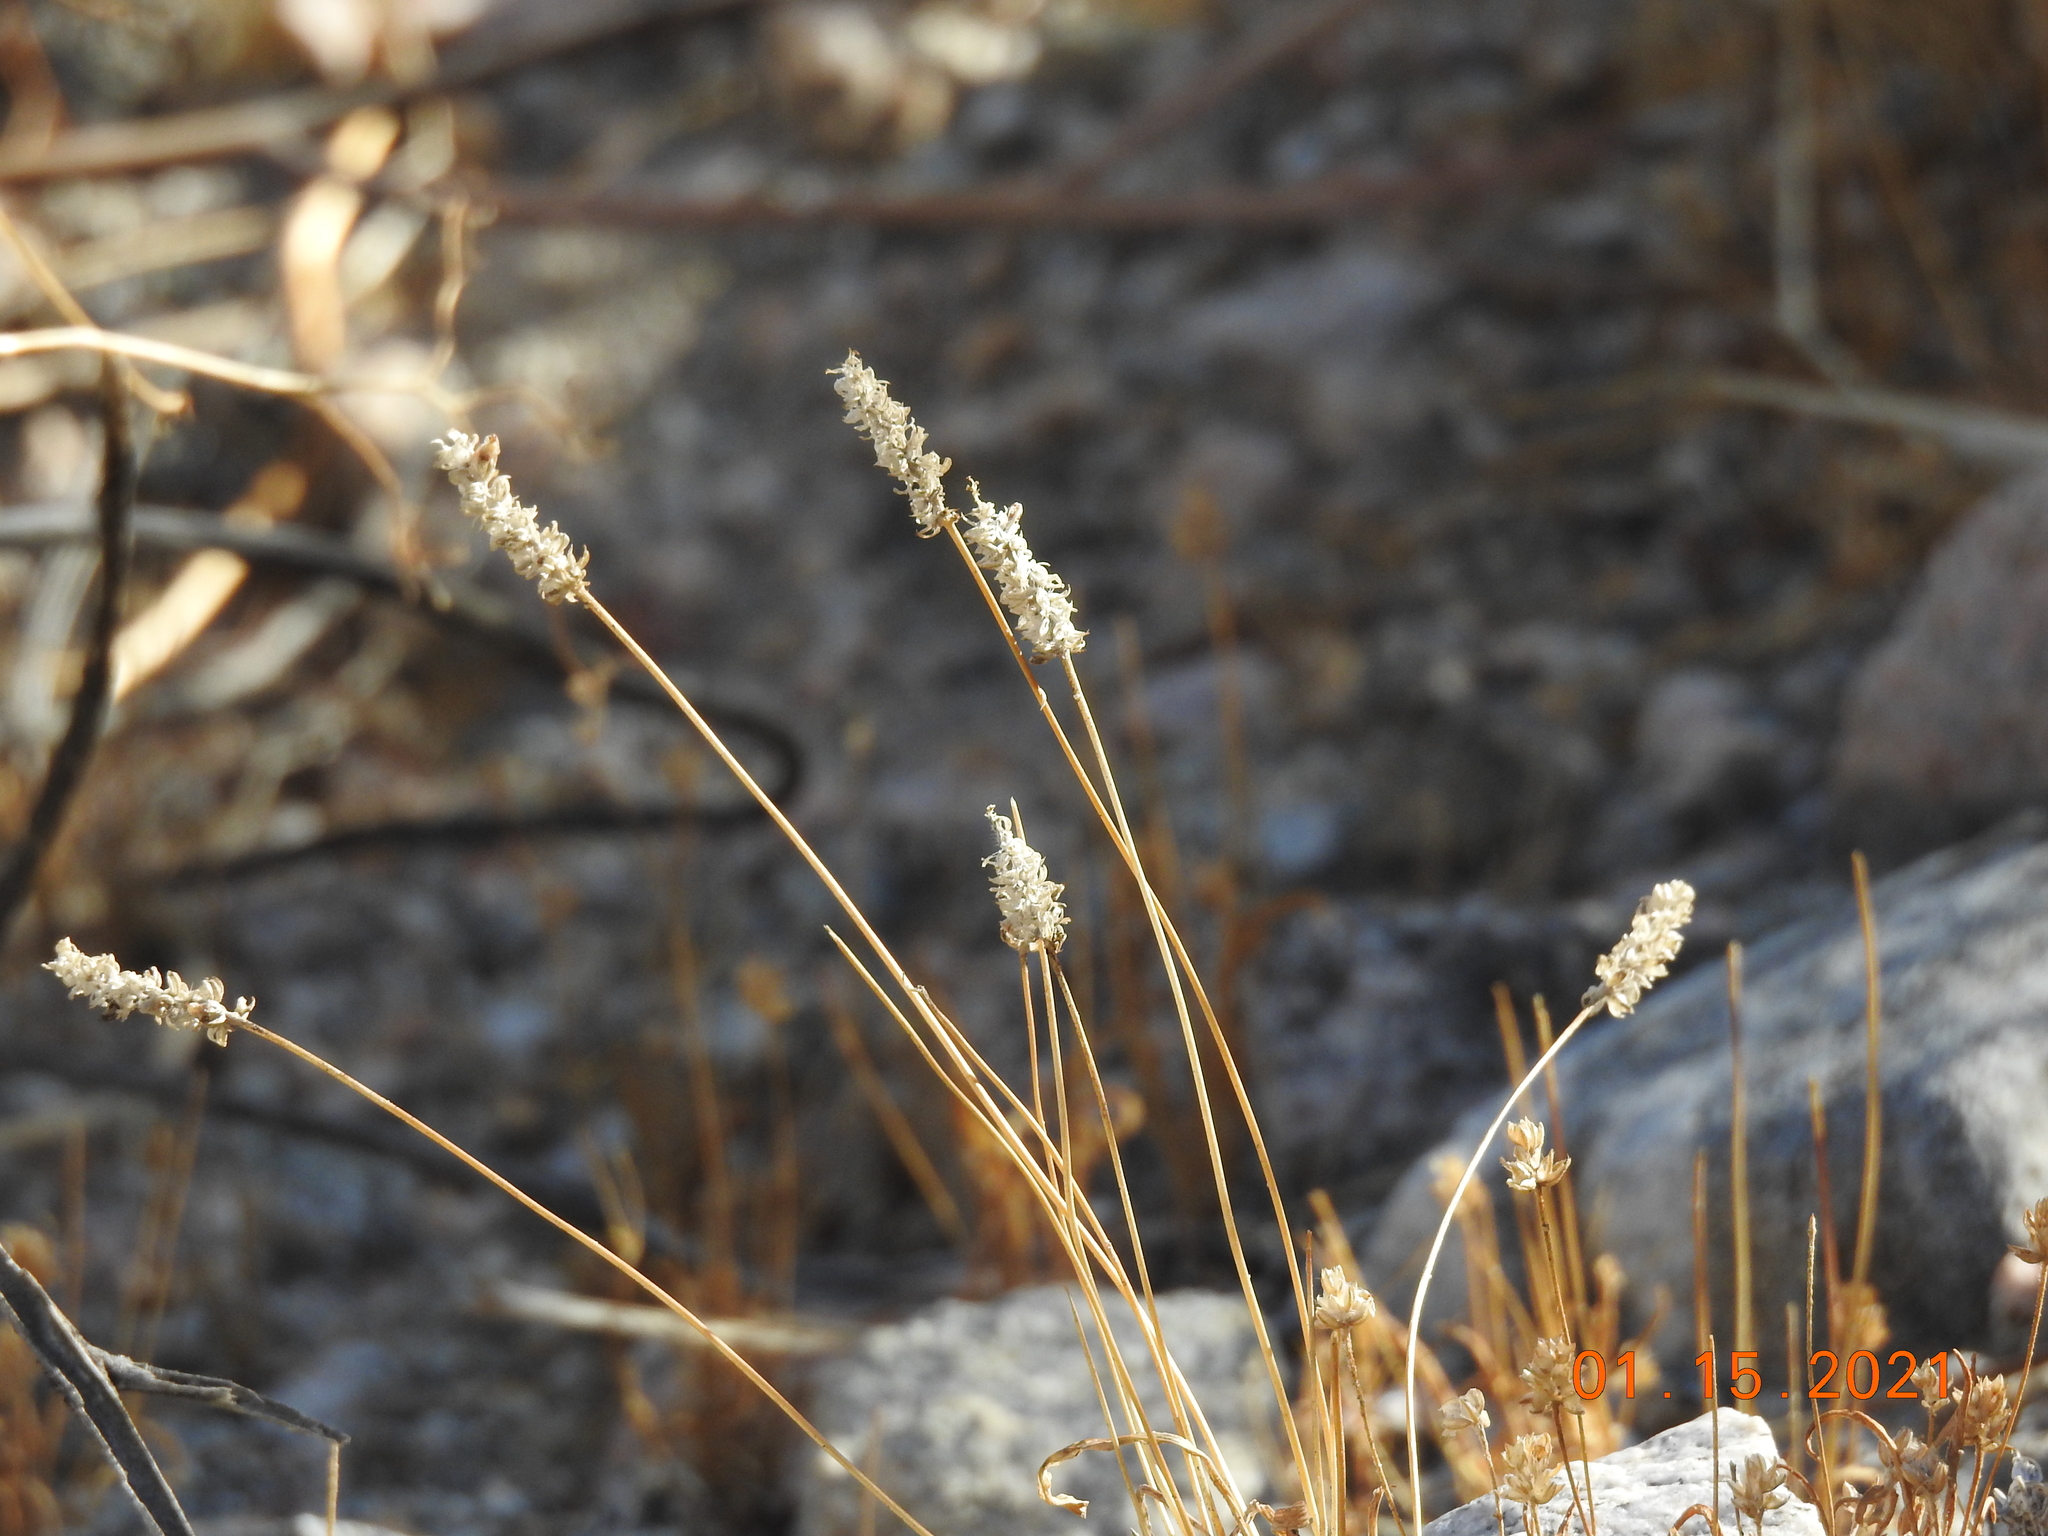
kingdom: Plantae
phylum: Tracheophyta
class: Magnoliopsida
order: Lamiales
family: Plantaginaceae
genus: Plantago
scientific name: Plantago ovata
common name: Blond plantain
